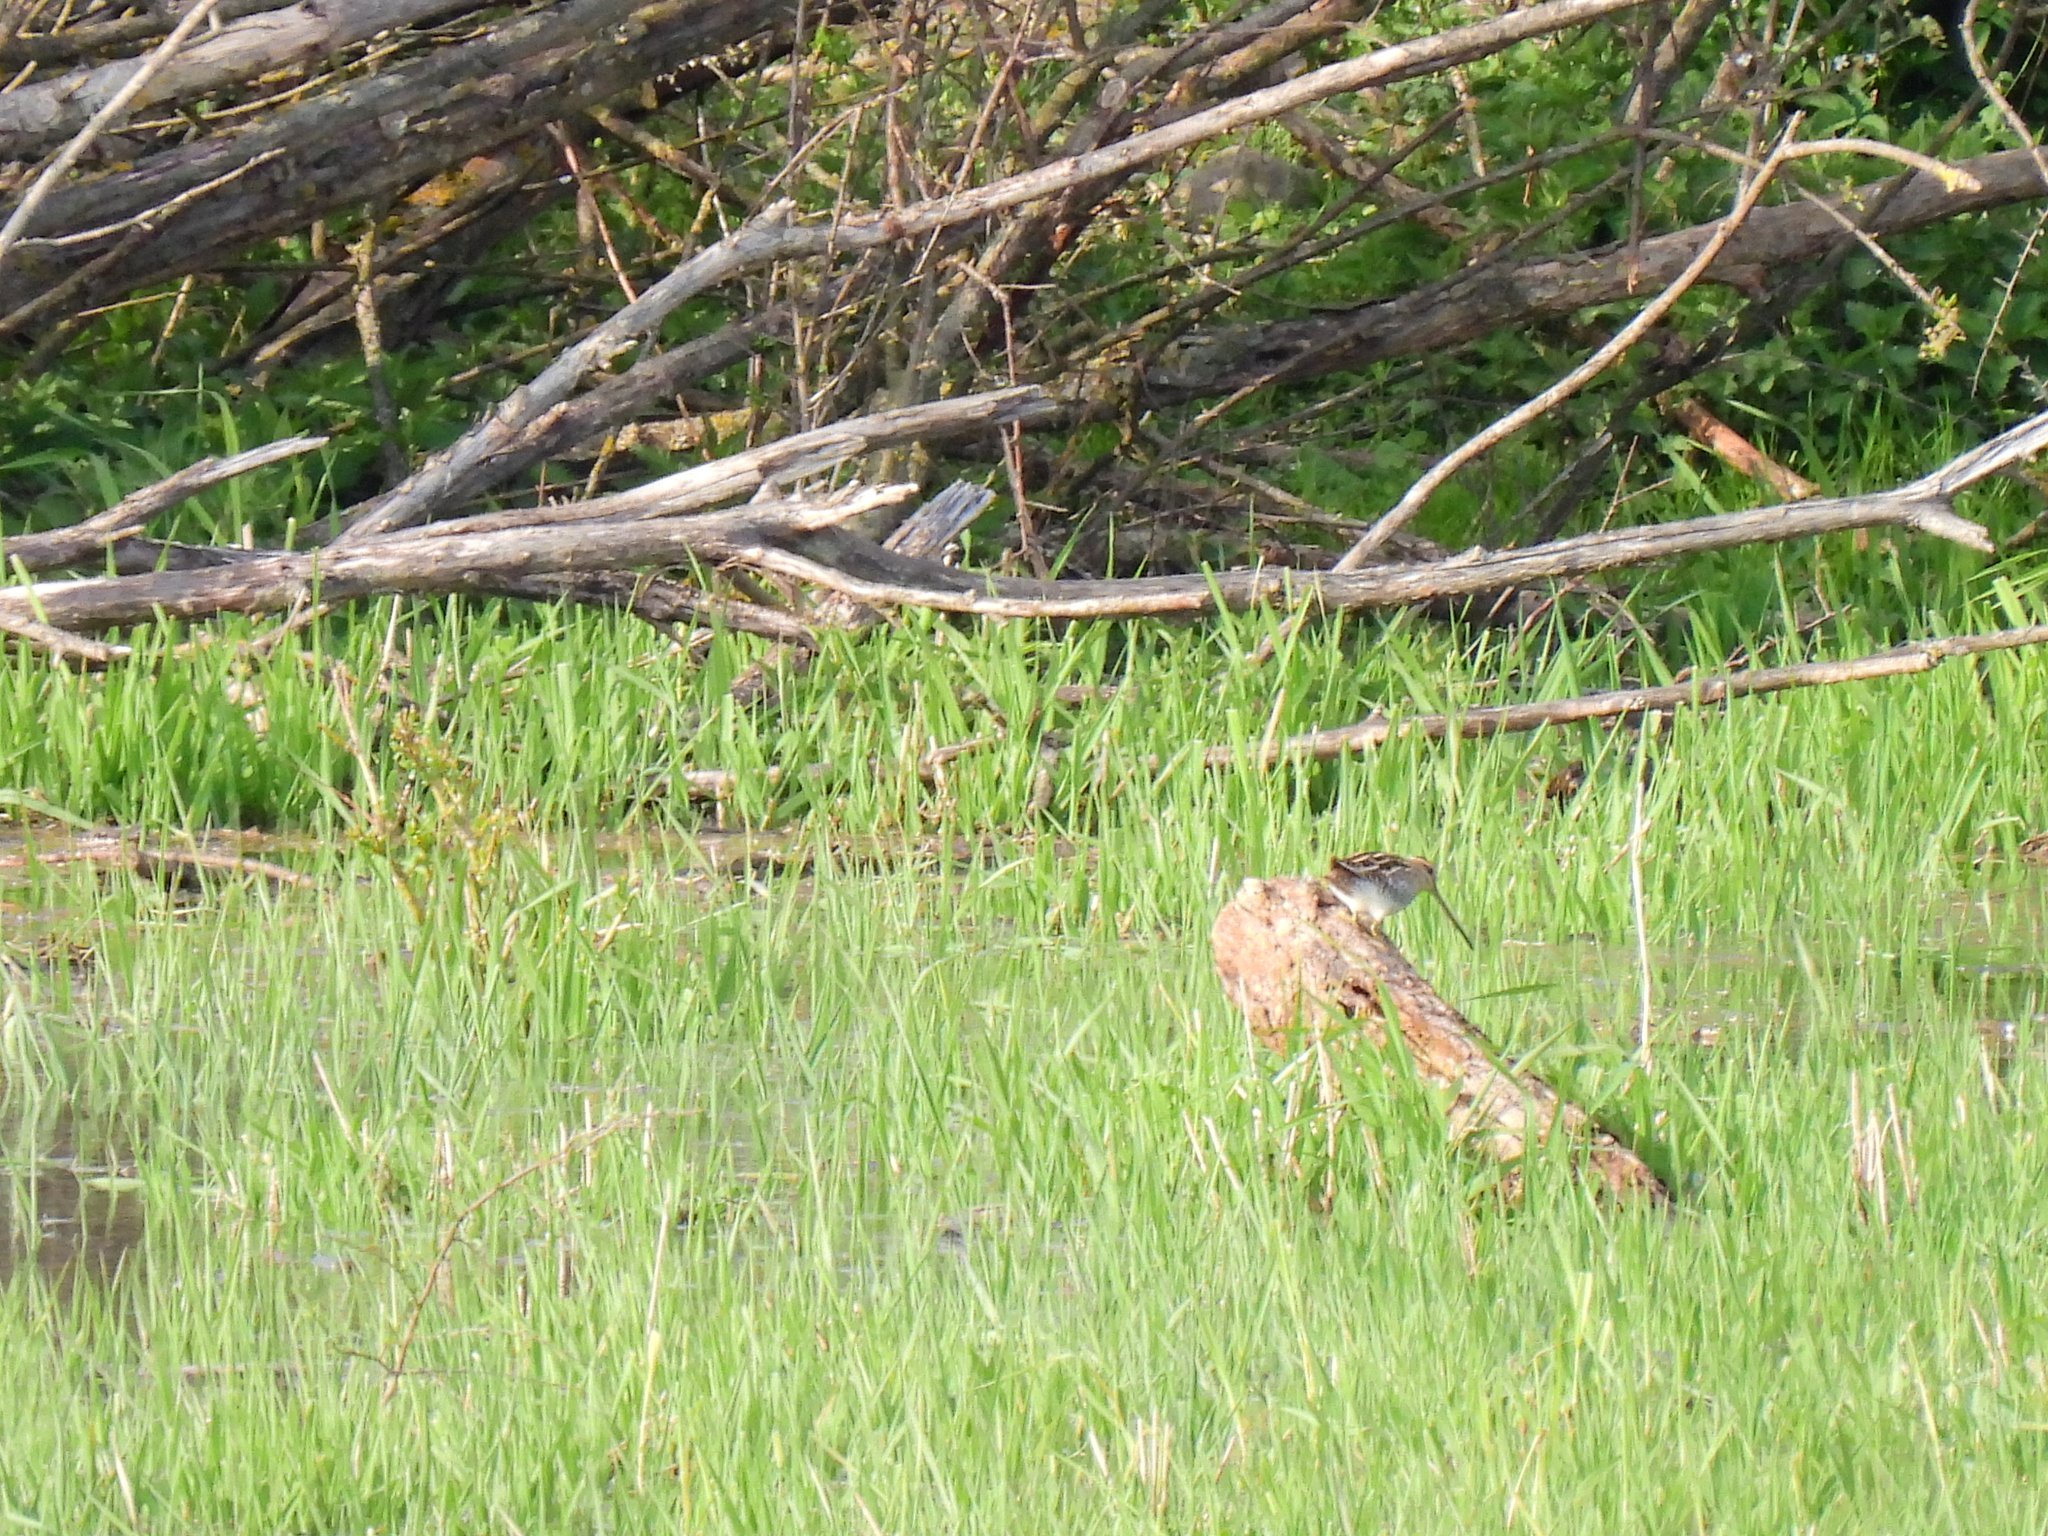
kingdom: Animalia
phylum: Chordata
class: Aves
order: Charadriiformes
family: Scolopacidae
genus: Gallinago
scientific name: Gallinago gallinago
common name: Common snipe
